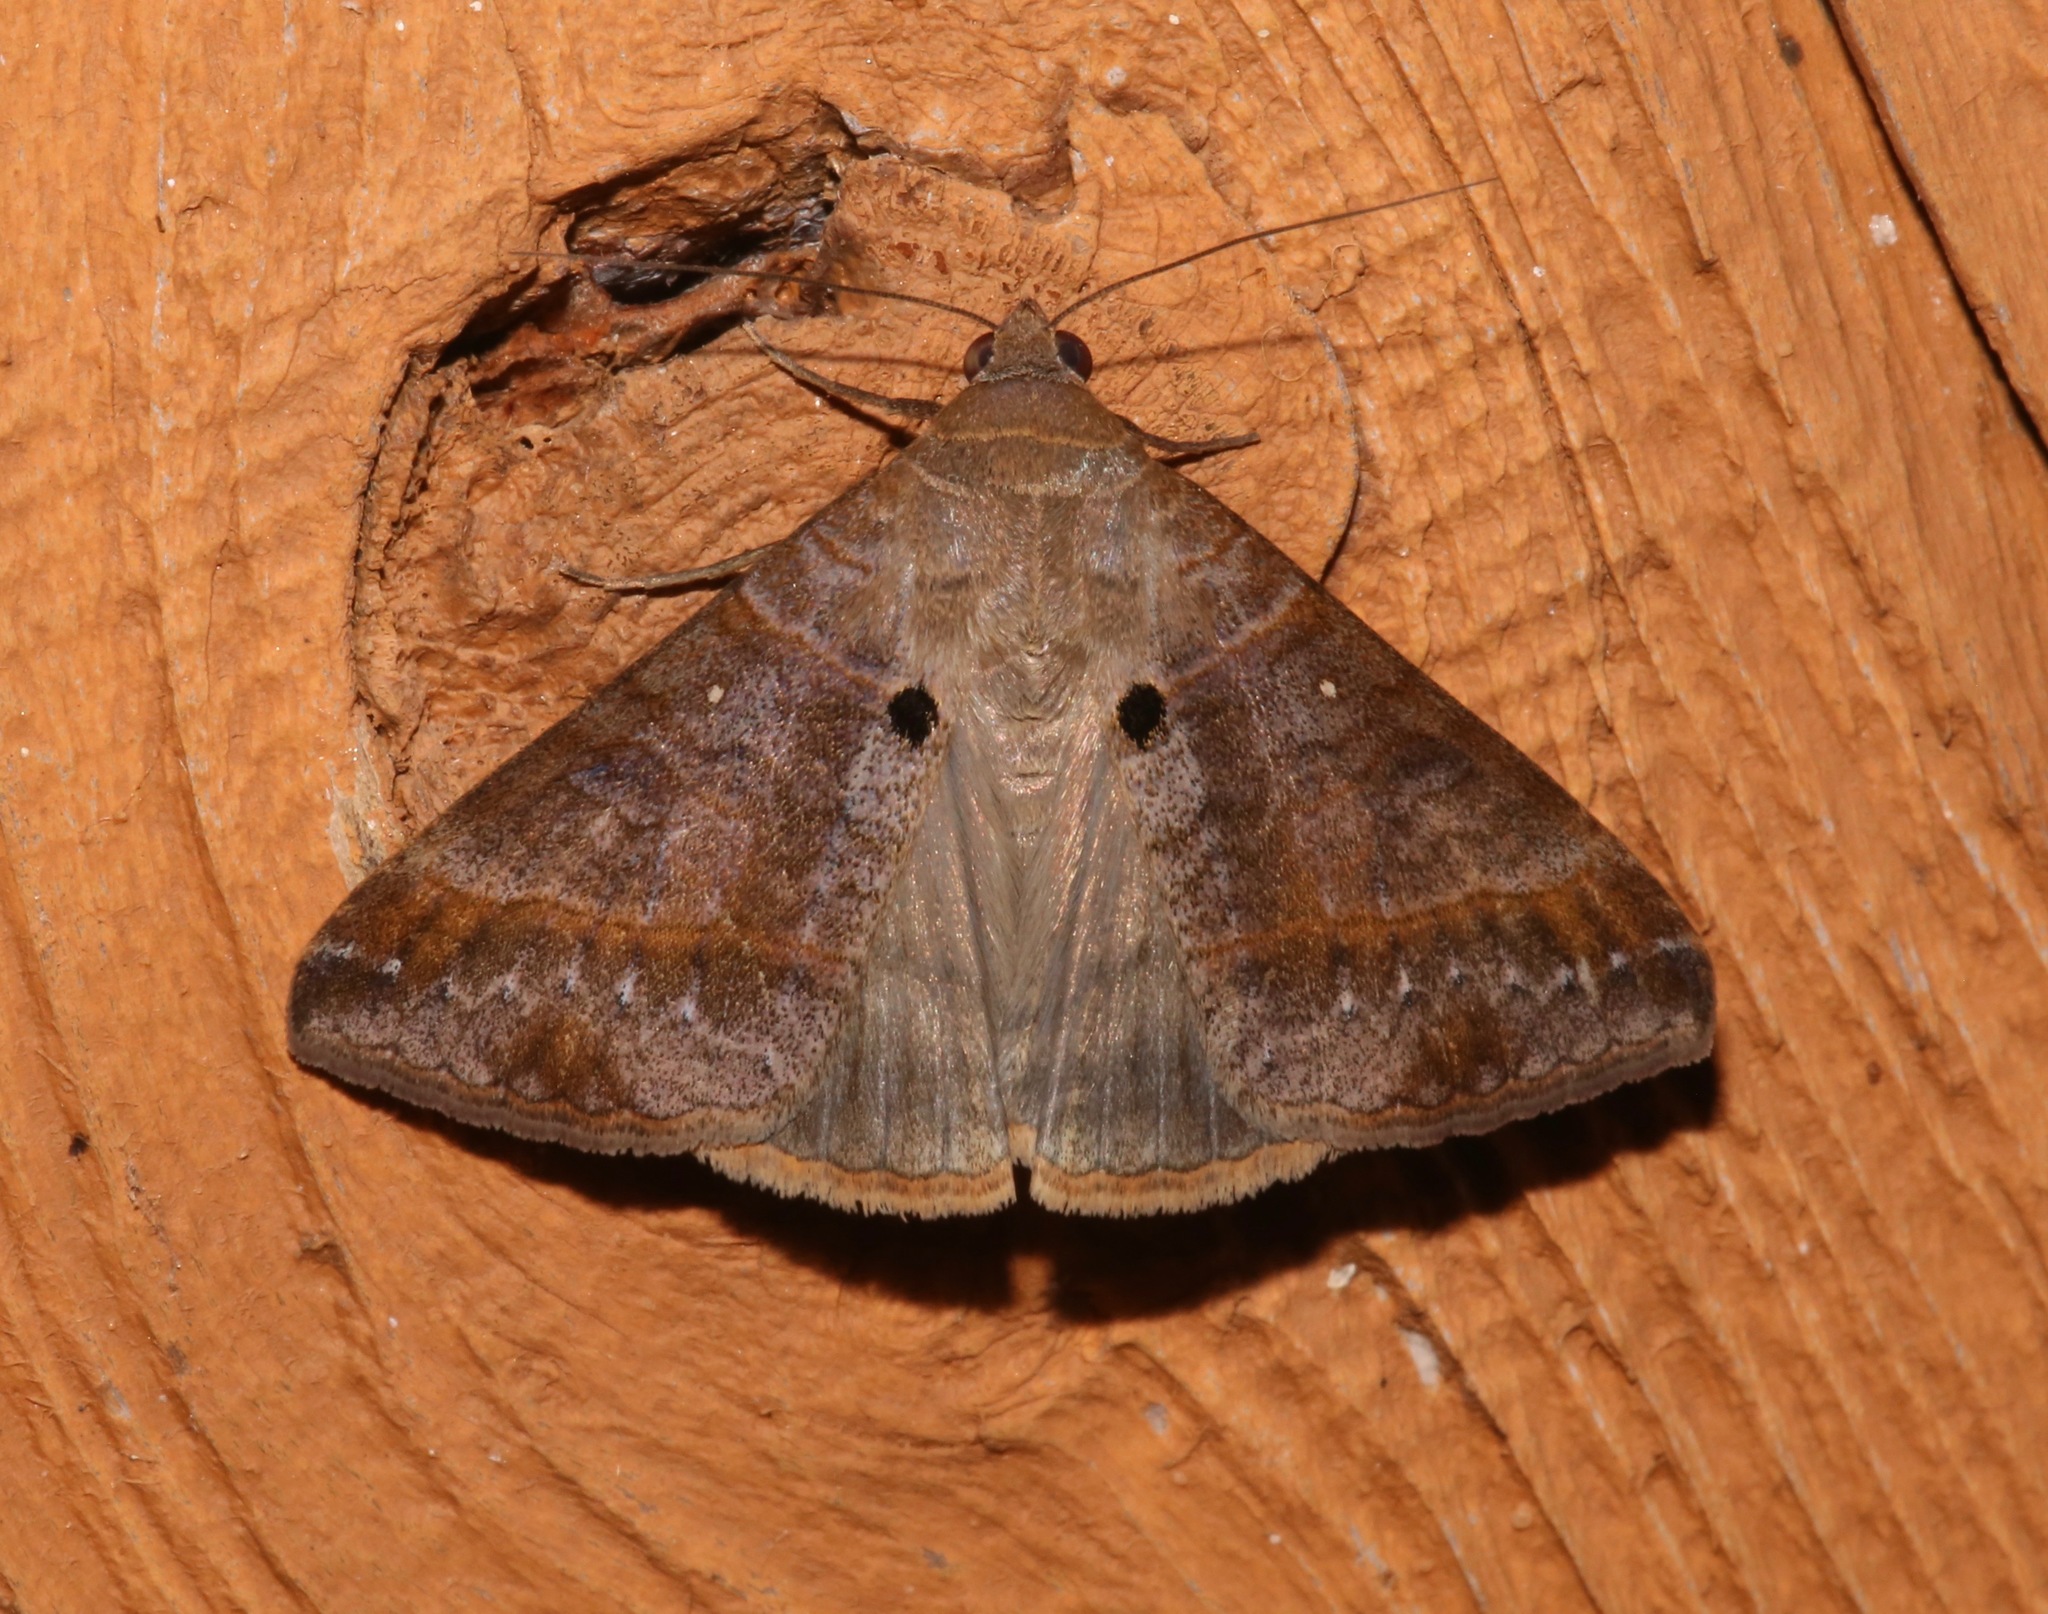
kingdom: Animalia
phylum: Arthropoda
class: Insecta
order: Lepidoptera
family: Erebidae
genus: Mocis
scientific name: Mocis latipes
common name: Striped grass looper
